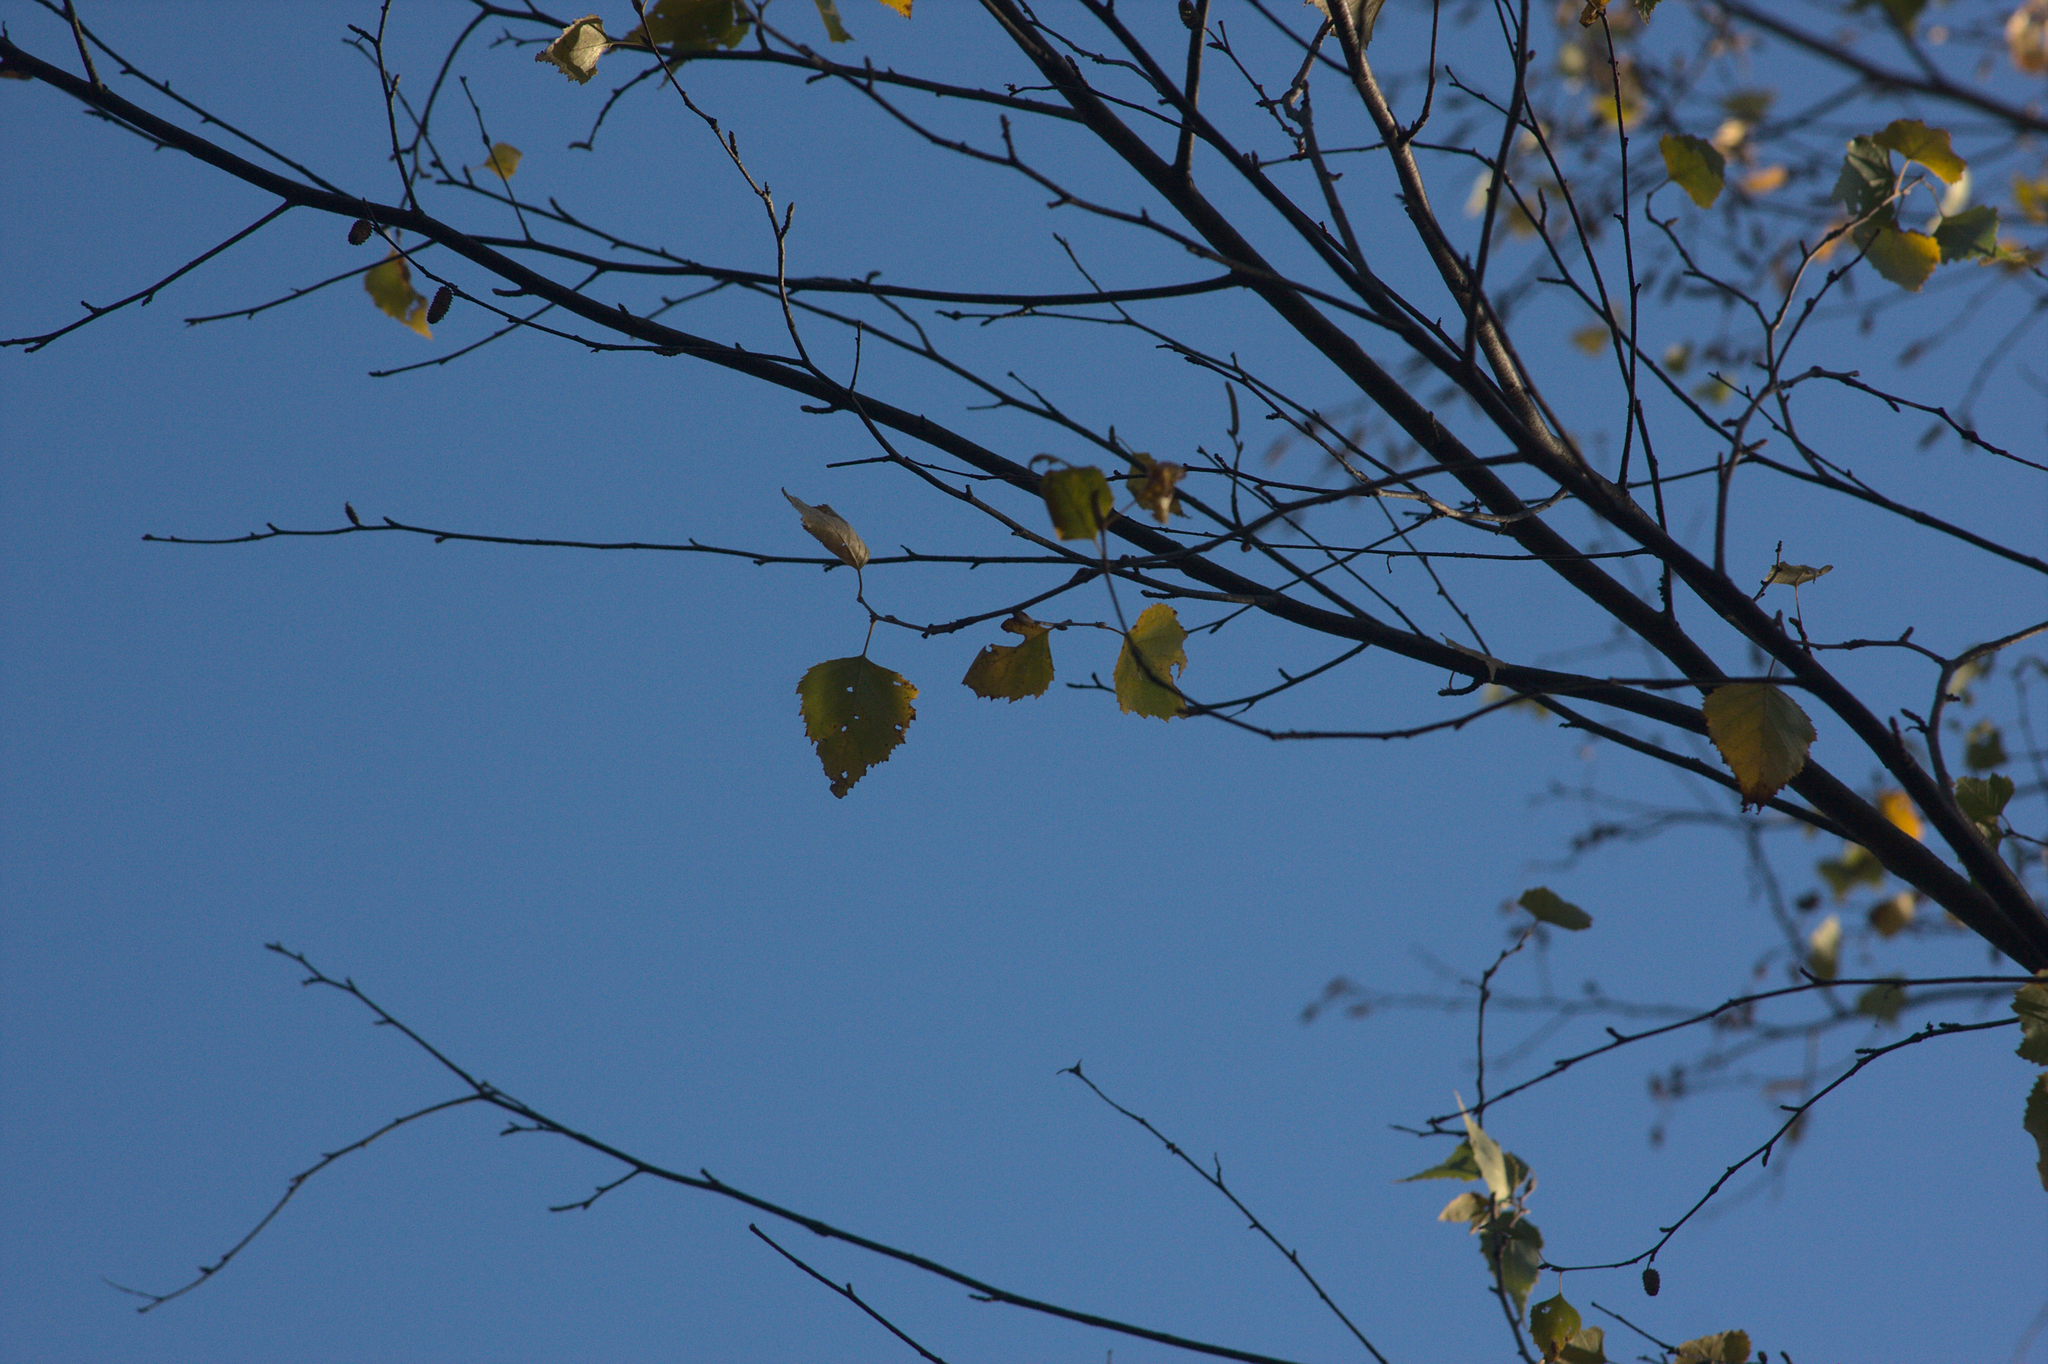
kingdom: Plantae
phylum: Tracheophyta
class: Magnoliopsida
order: Fagales
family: Betulaceae
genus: Betula
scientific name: Betula populifolia
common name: Fire birch
